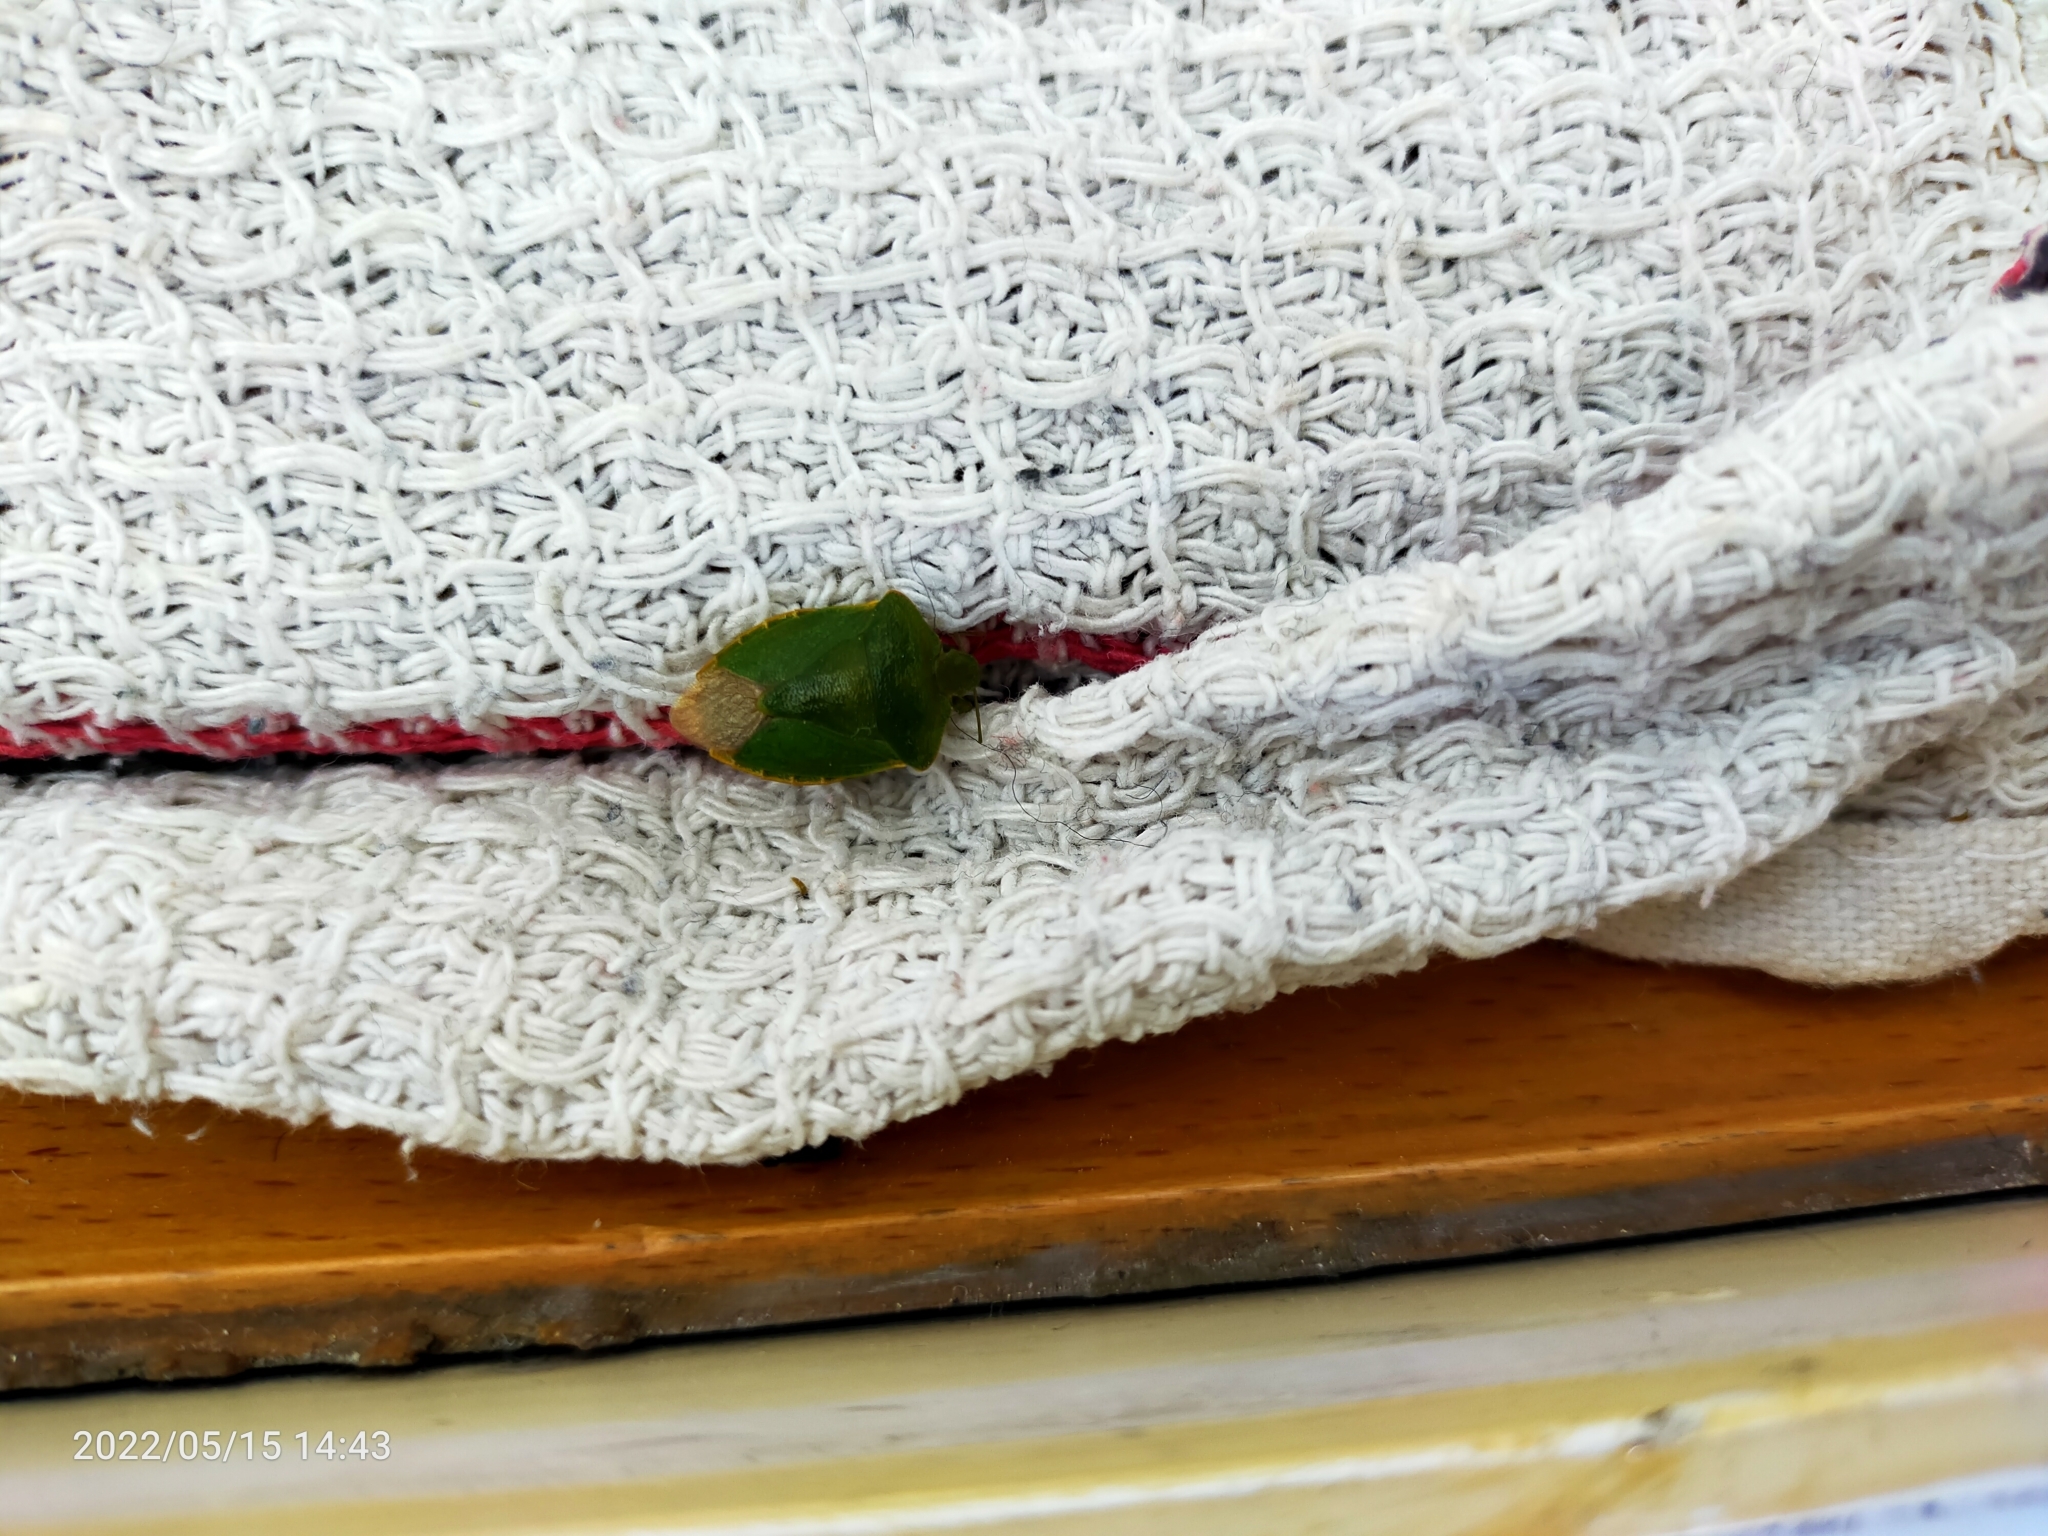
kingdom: Animalia
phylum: Arthropoda
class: Insecta
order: Hemiptera
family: Pentatomidae
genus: Palomena
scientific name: Palomena prasina
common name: Green shieldbug
